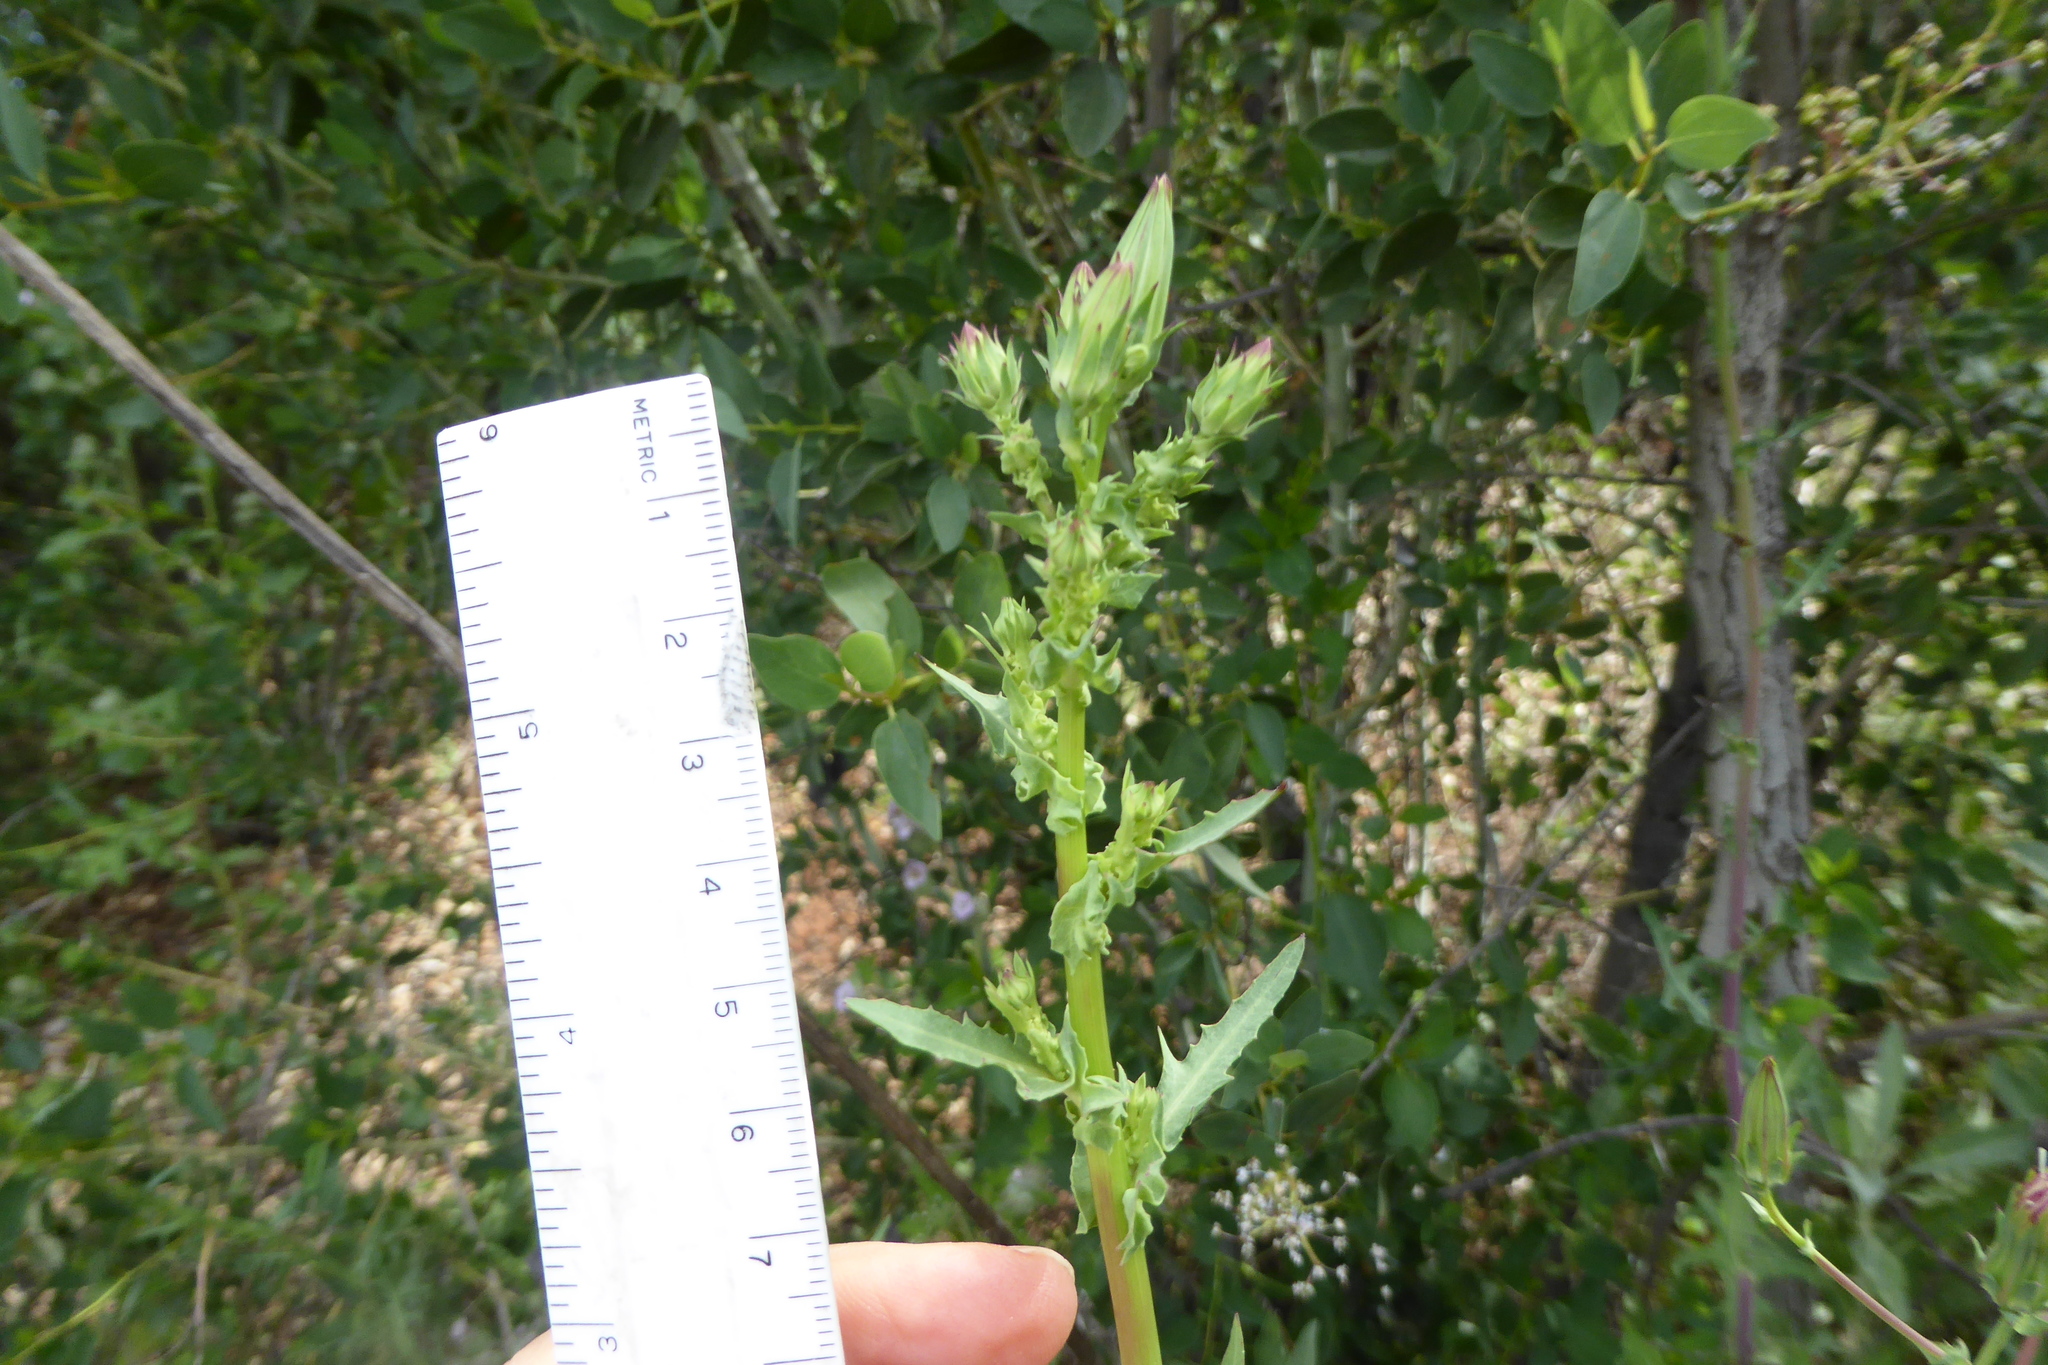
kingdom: Plantae
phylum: Tracheophyta
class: Magnoliopsida
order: Asterales
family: Asteraceae
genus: Sonchus
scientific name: Sonchus asper
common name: Prickly sow-thistle
